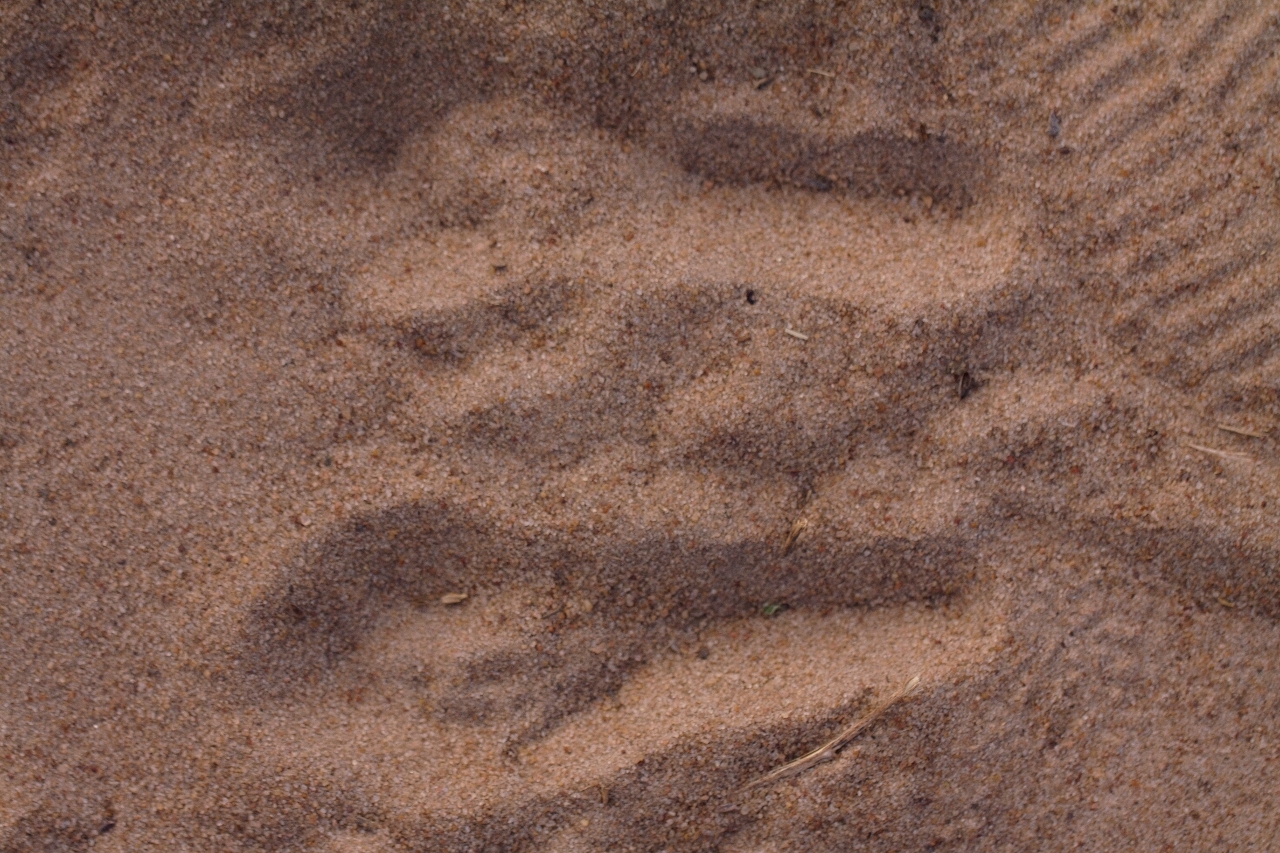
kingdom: Animalia
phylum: Chordata
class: Mammalia
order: Rodentia
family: Pedetidae
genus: Pedetes
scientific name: Pedetes capensis
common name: South african spring hare
